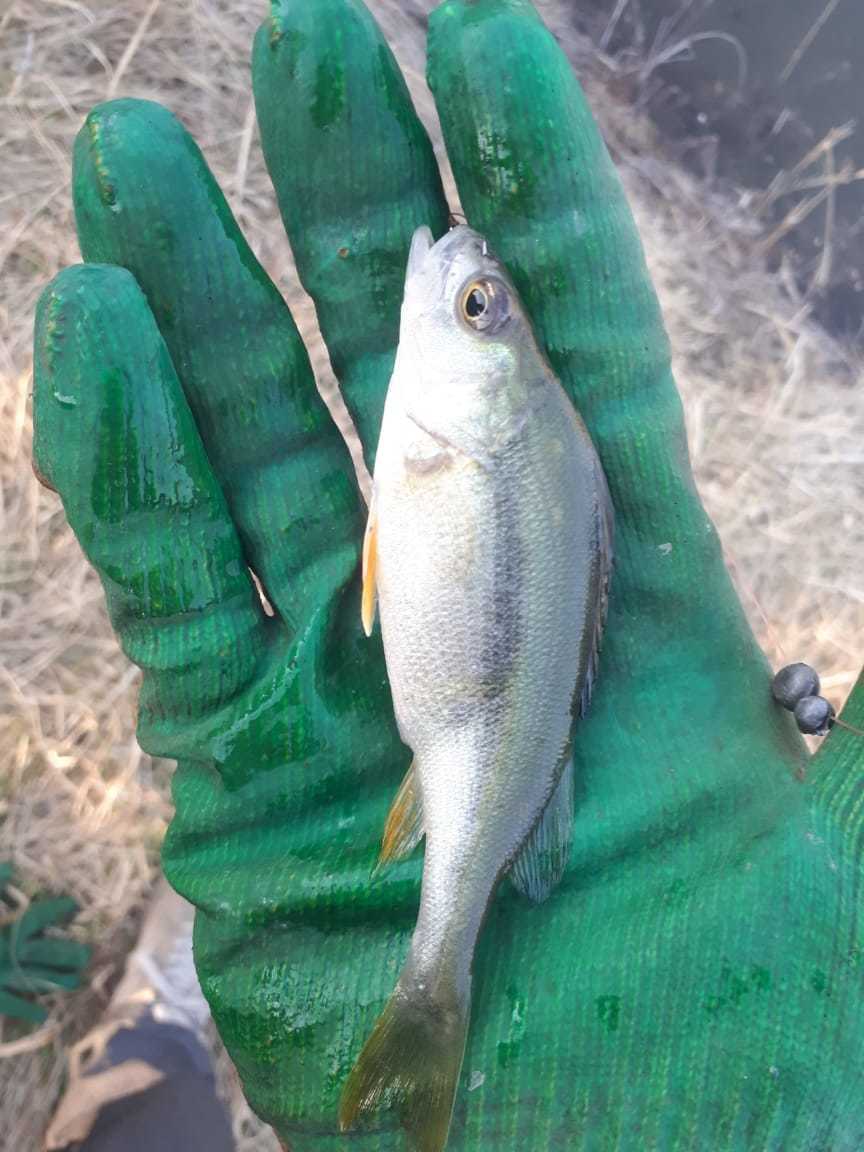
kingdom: Animalia
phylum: Chordata
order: Perciformes
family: Percidae
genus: Perca
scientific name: Perca fluviatilis
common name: Perch
